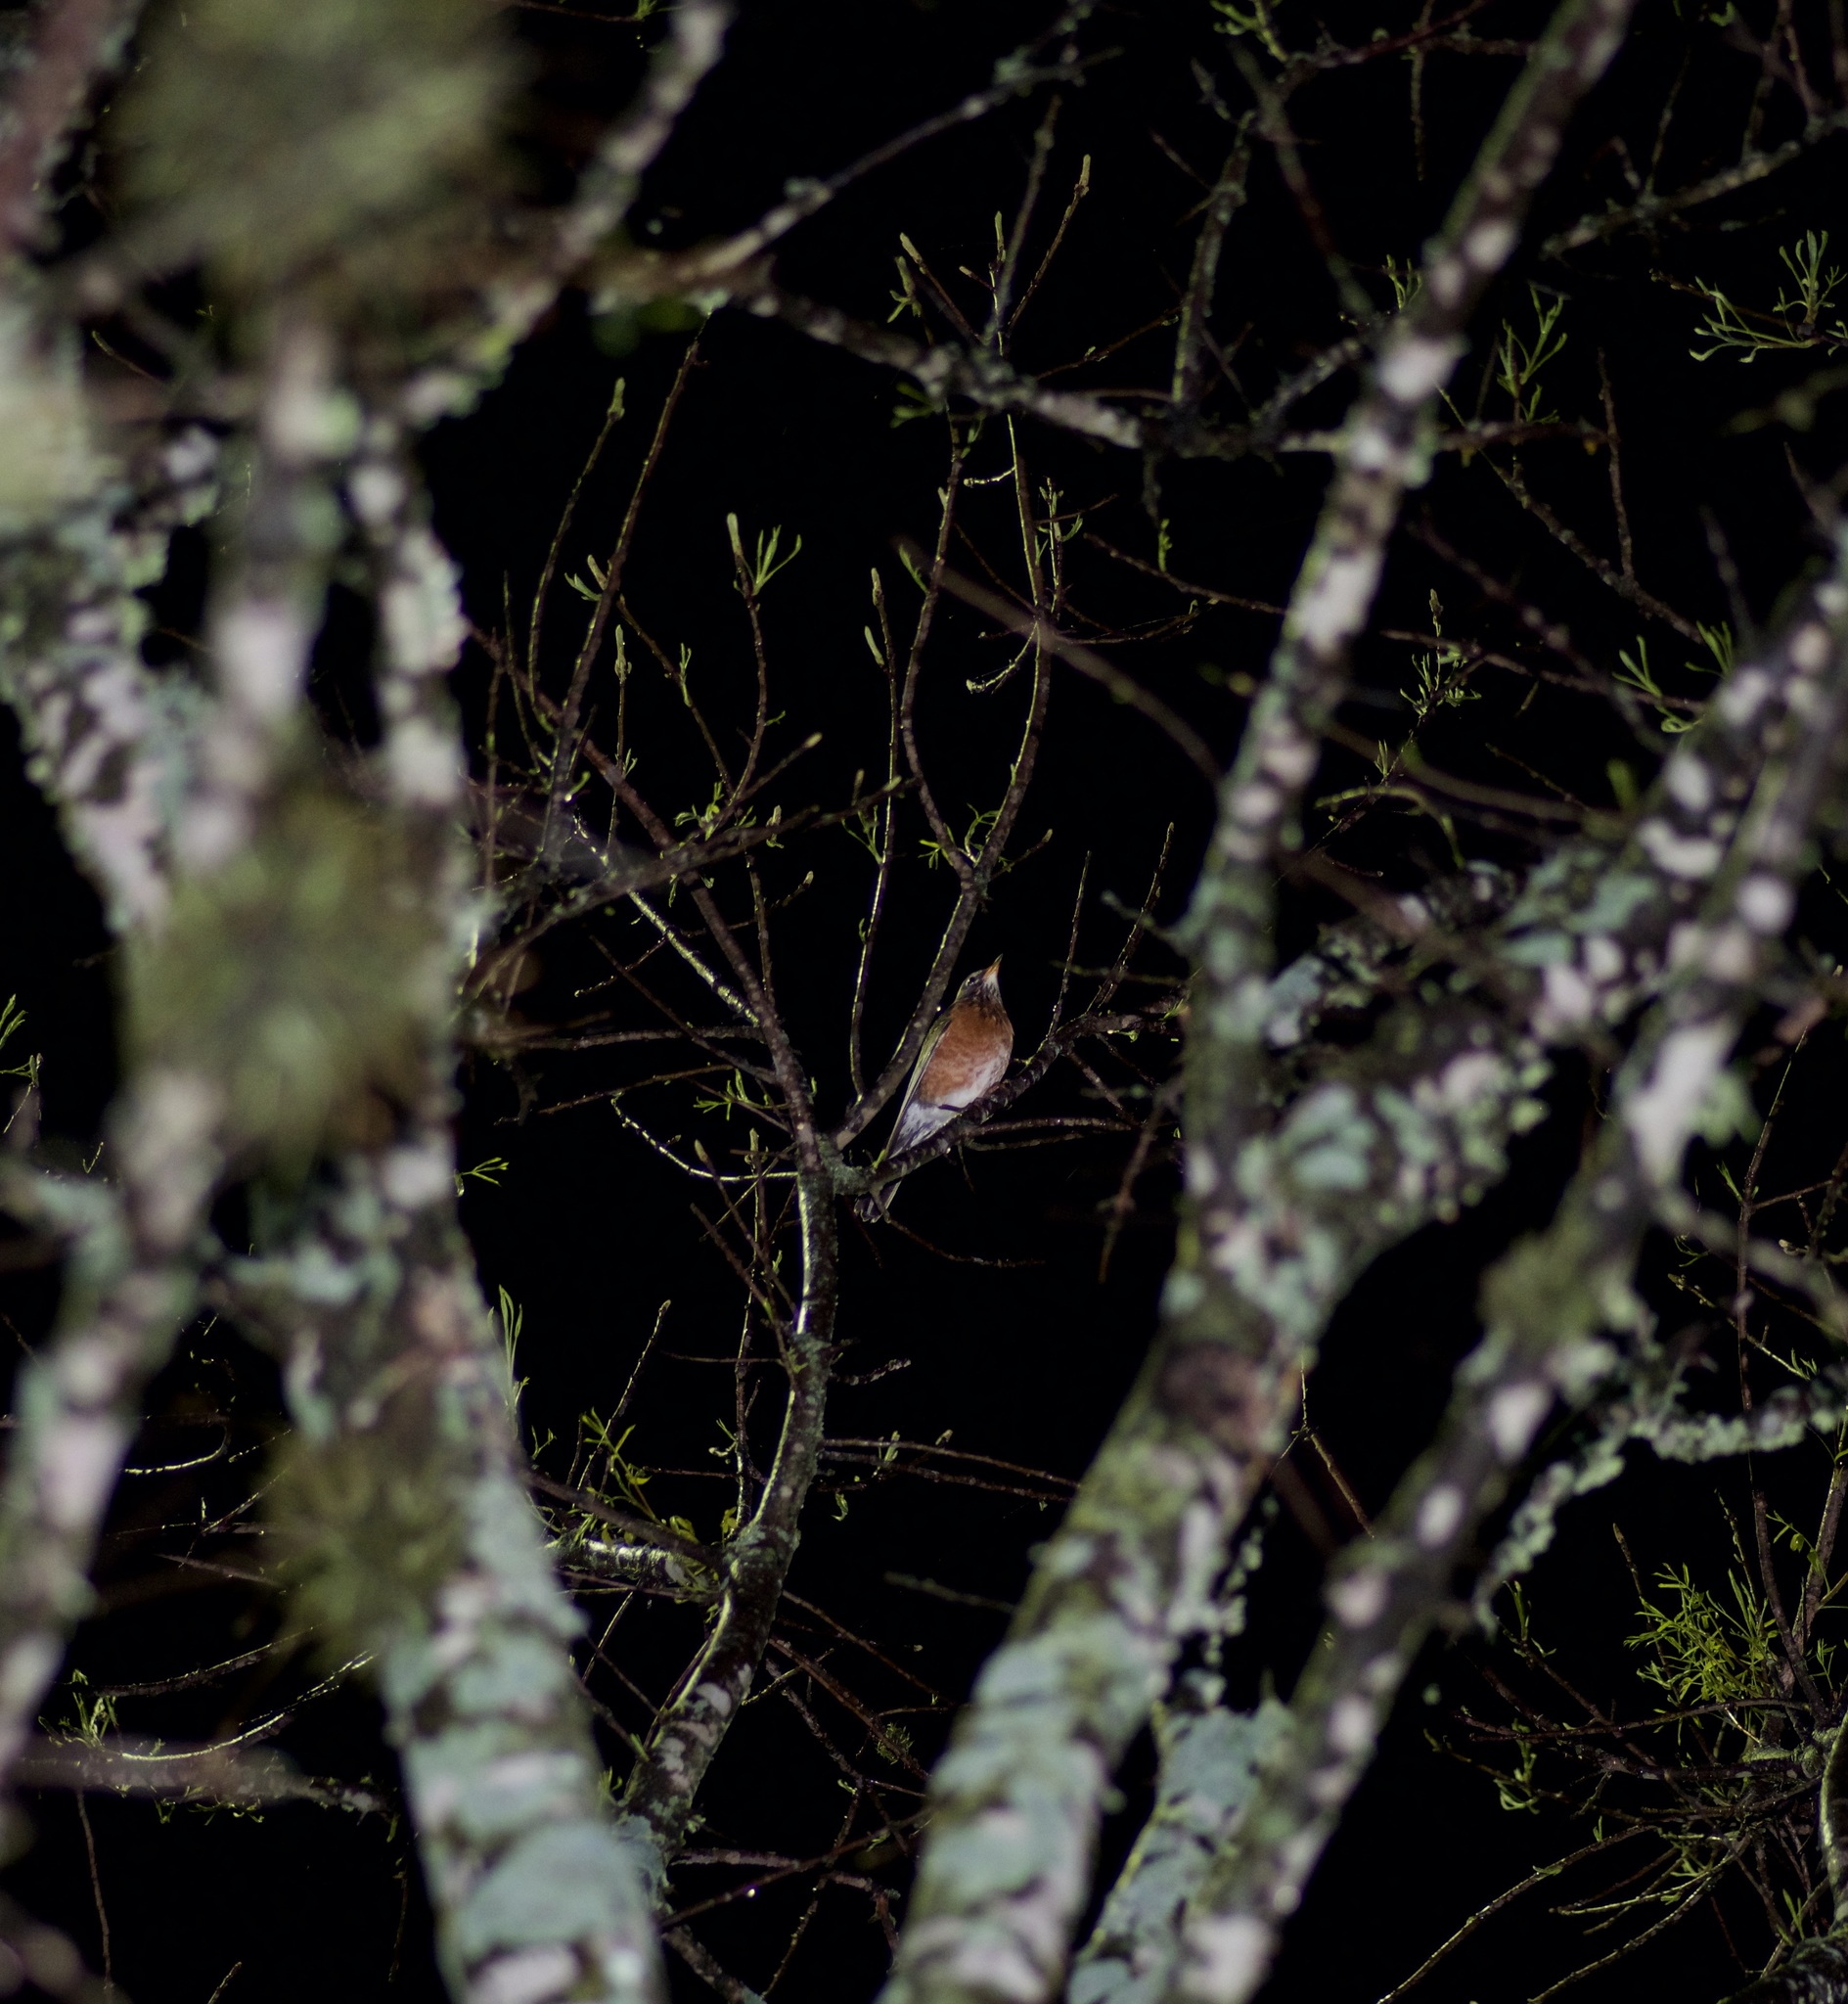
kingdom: Animalia
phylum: Chordata
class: Aves
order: Passeriformes
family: Turdidae
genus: Turdus
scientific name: Turdus migratorius
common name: American robin
